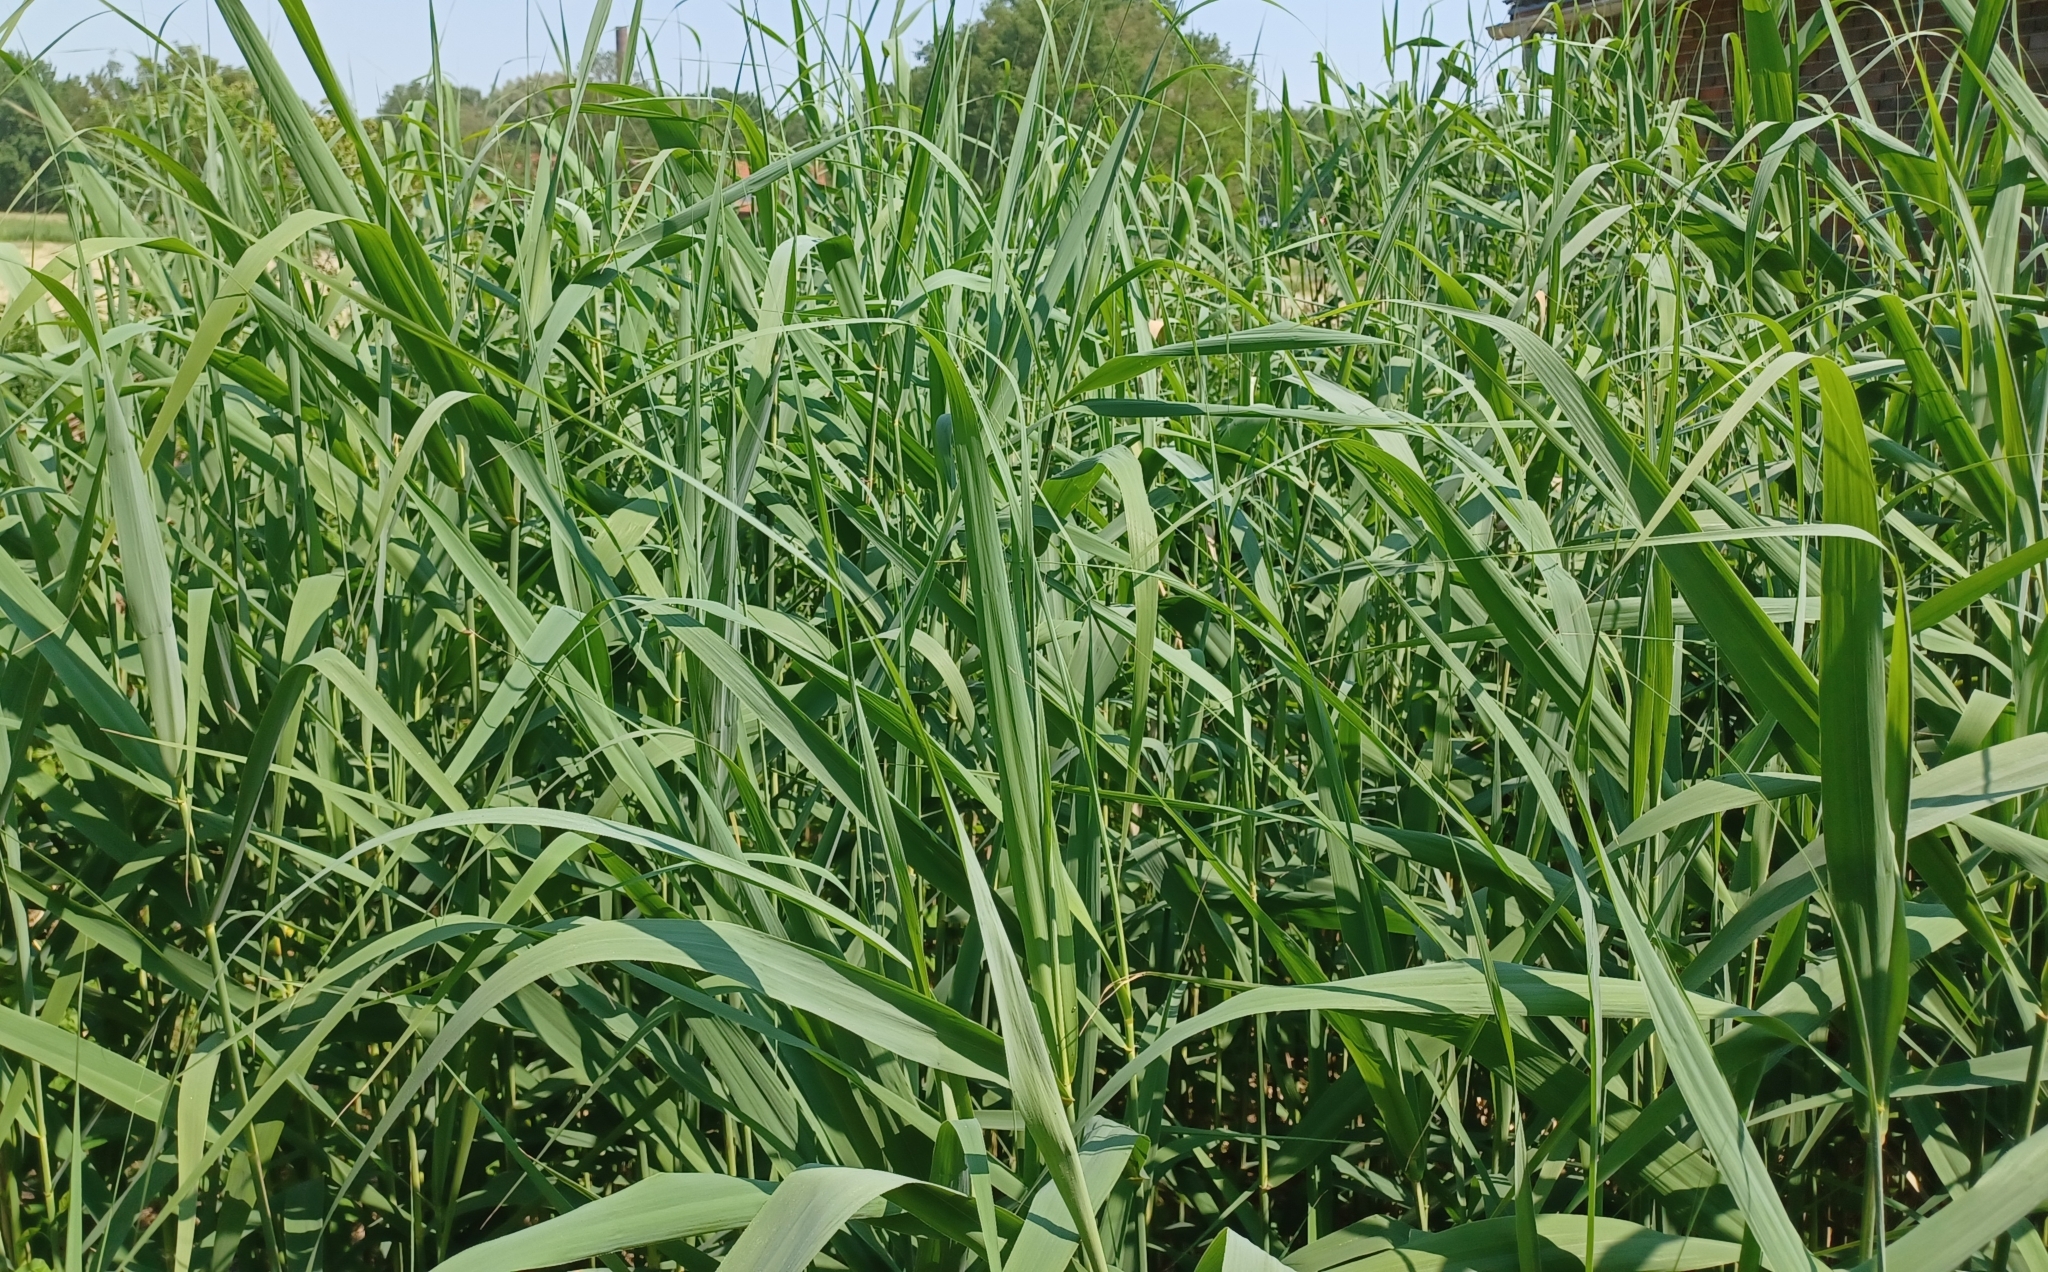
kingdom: Plantae
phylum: Tracheophyta
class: Liliopsida
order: Poales
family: Poaceae
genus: Phragmites
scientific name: Phragmites australis
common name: Common reed
